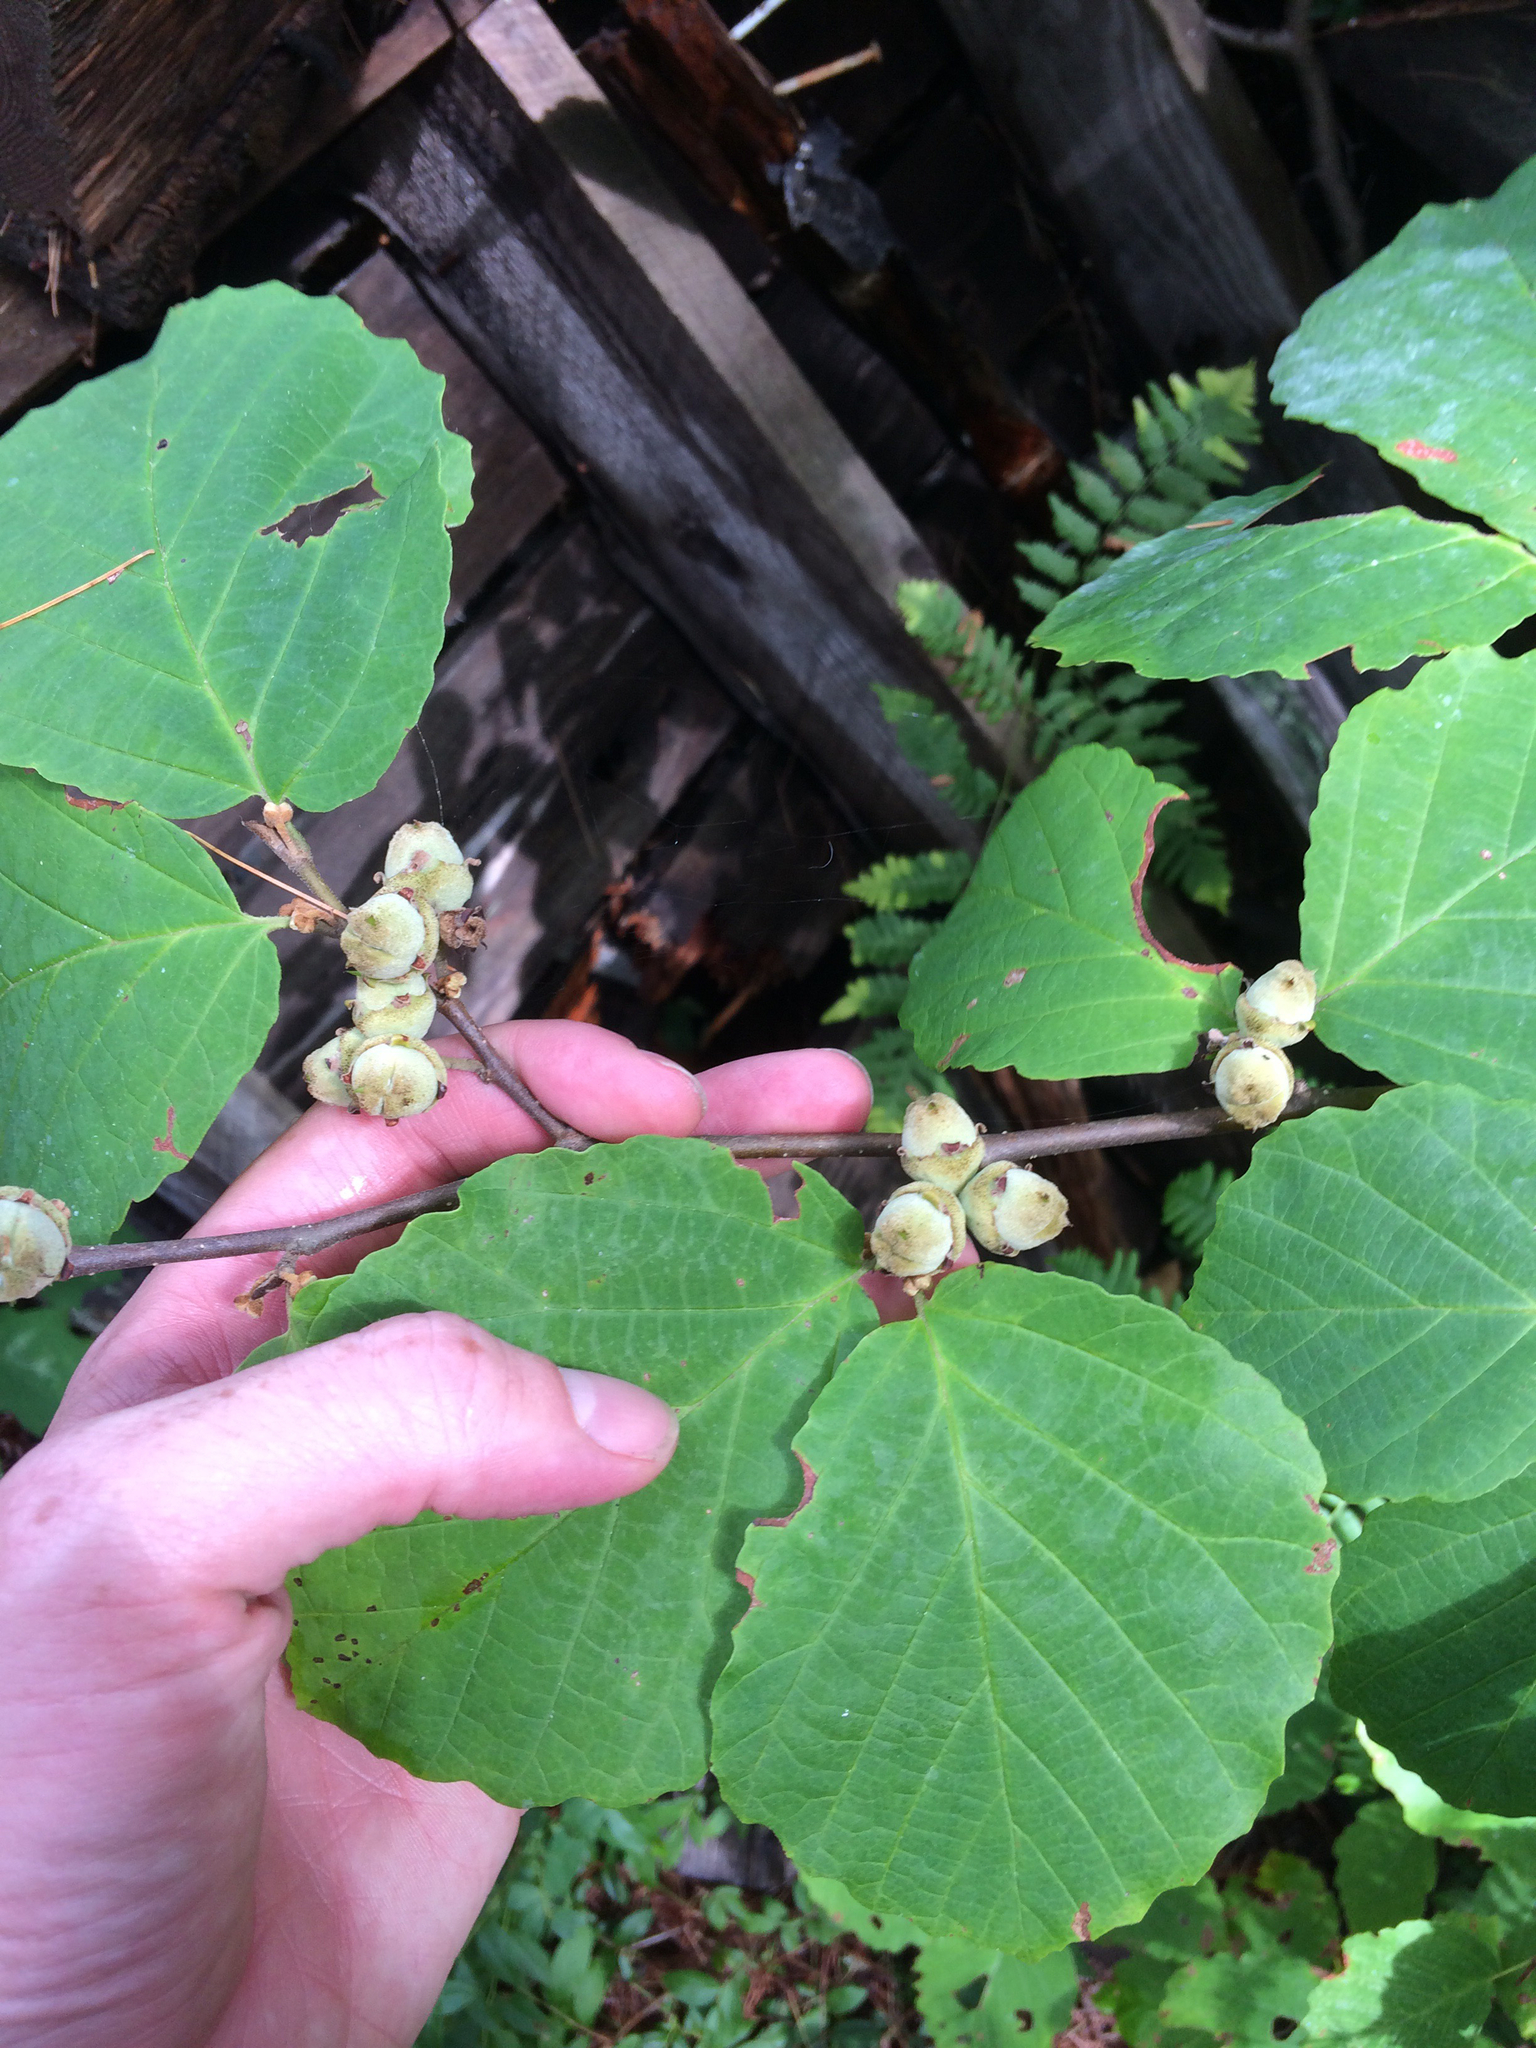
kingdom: Plantae
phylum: Tracheophyta
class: Magnoliopsida
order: Saxifragales
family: Hamamelidaceae
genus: Hamamelis
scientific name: Hamamelis virginiana
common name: Witch-hazel
